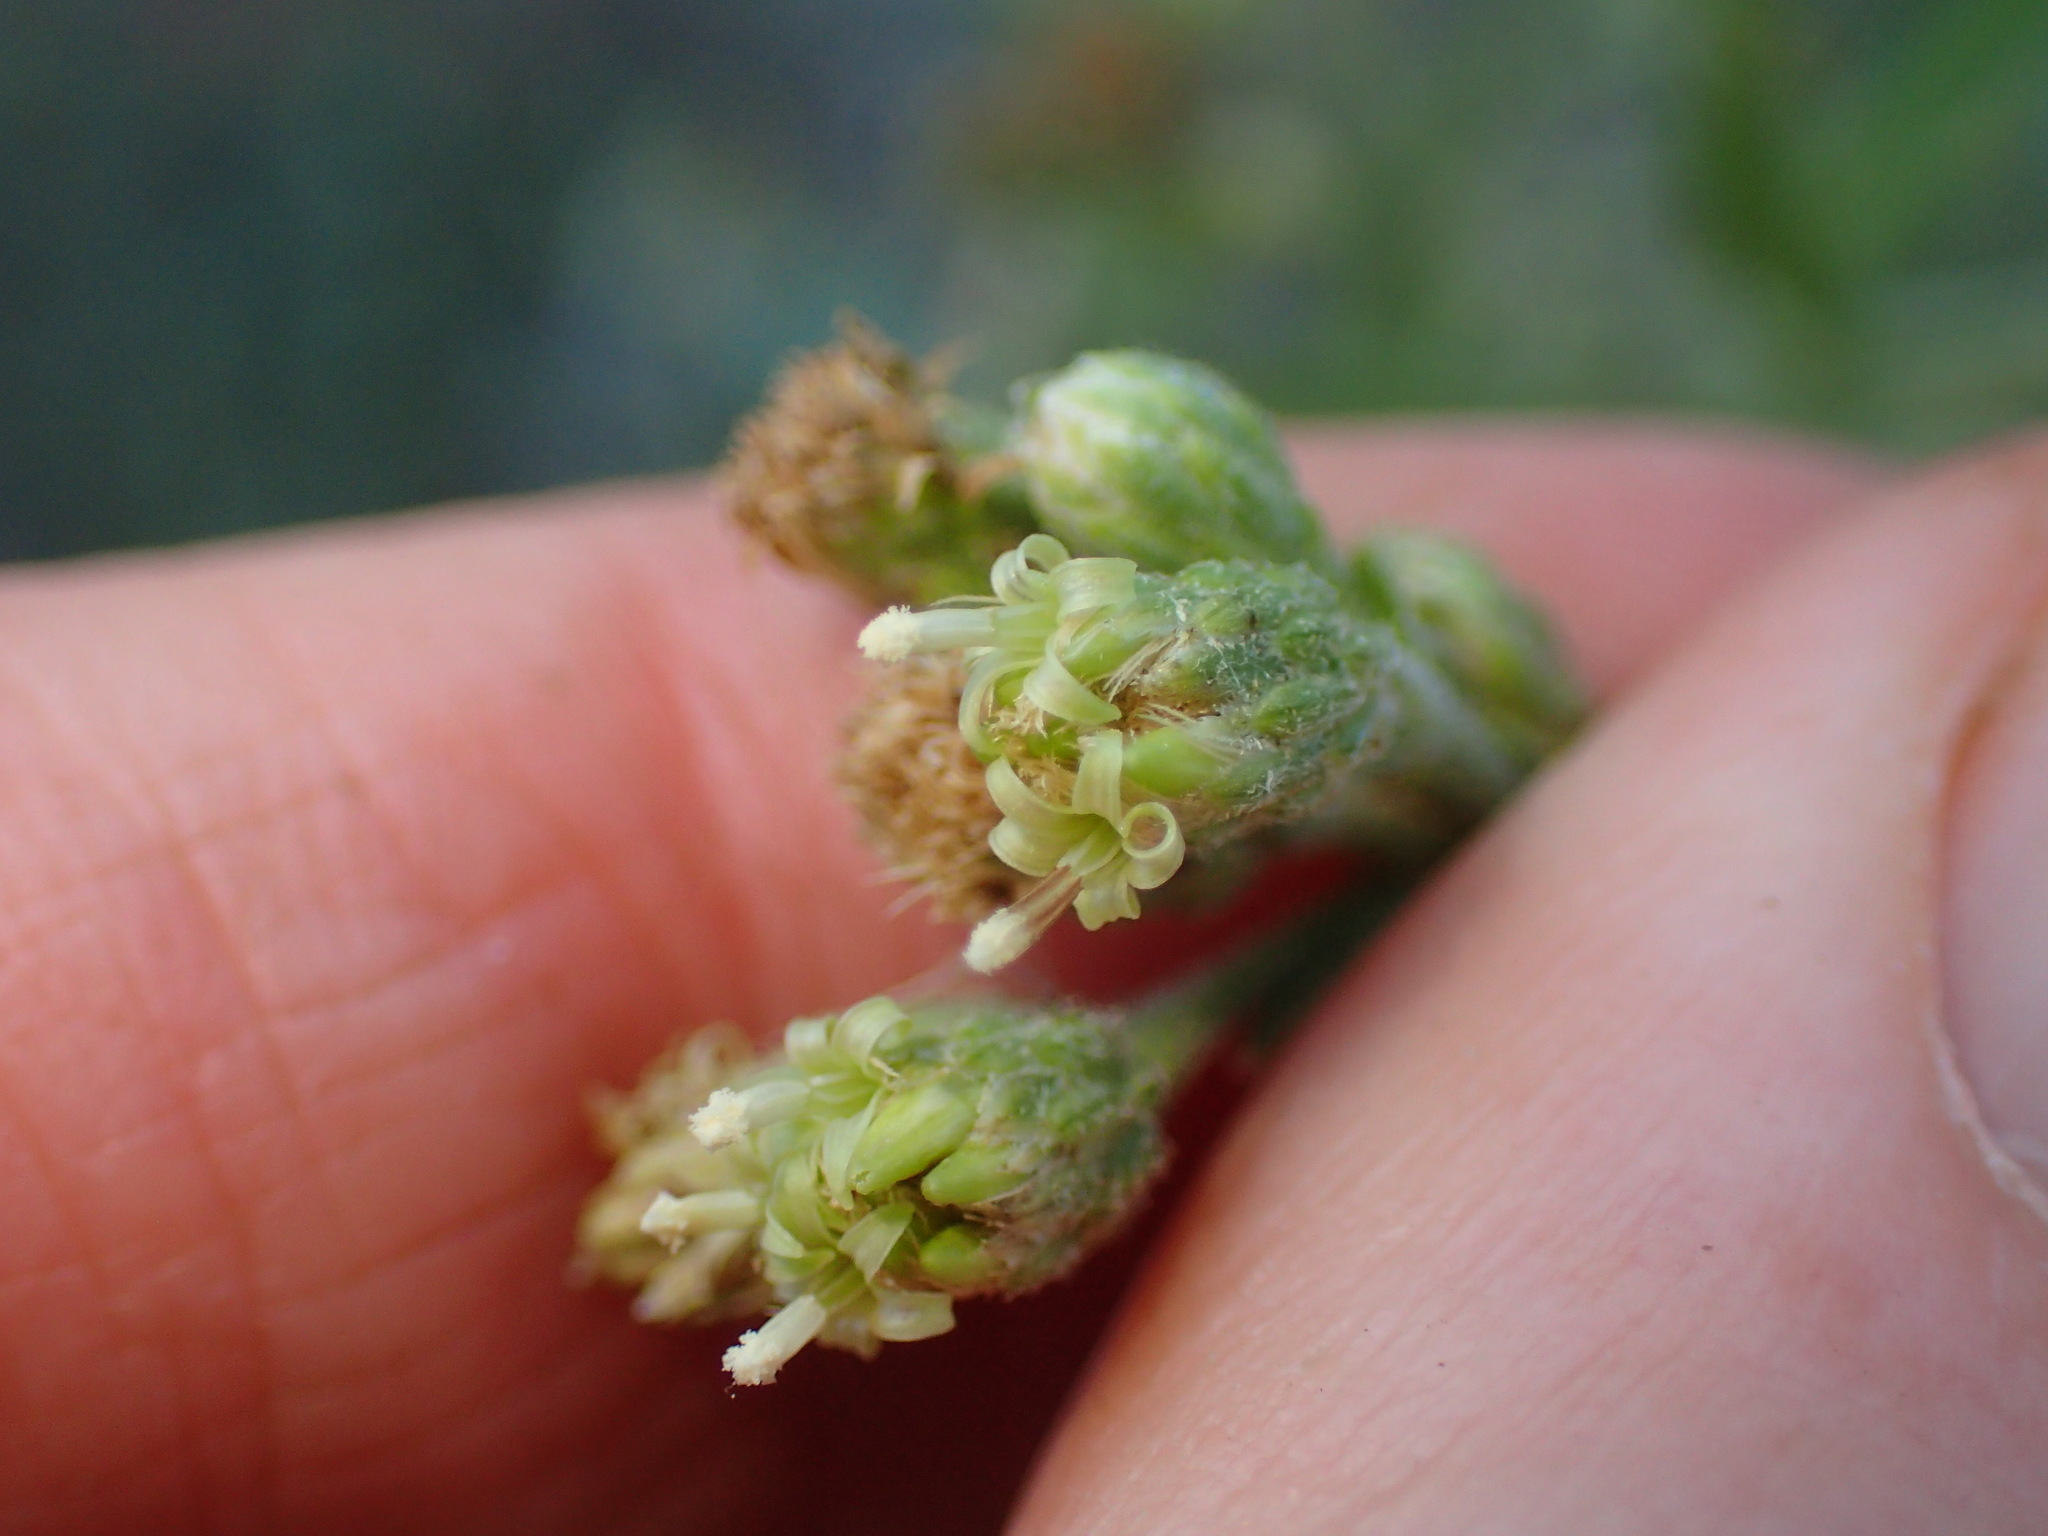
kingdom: Plantae
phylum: Tracheophyta
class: Magnoliopsida
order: Asterales
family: Asteraceae
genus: Baccharis
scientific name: Baccharis plummerae
